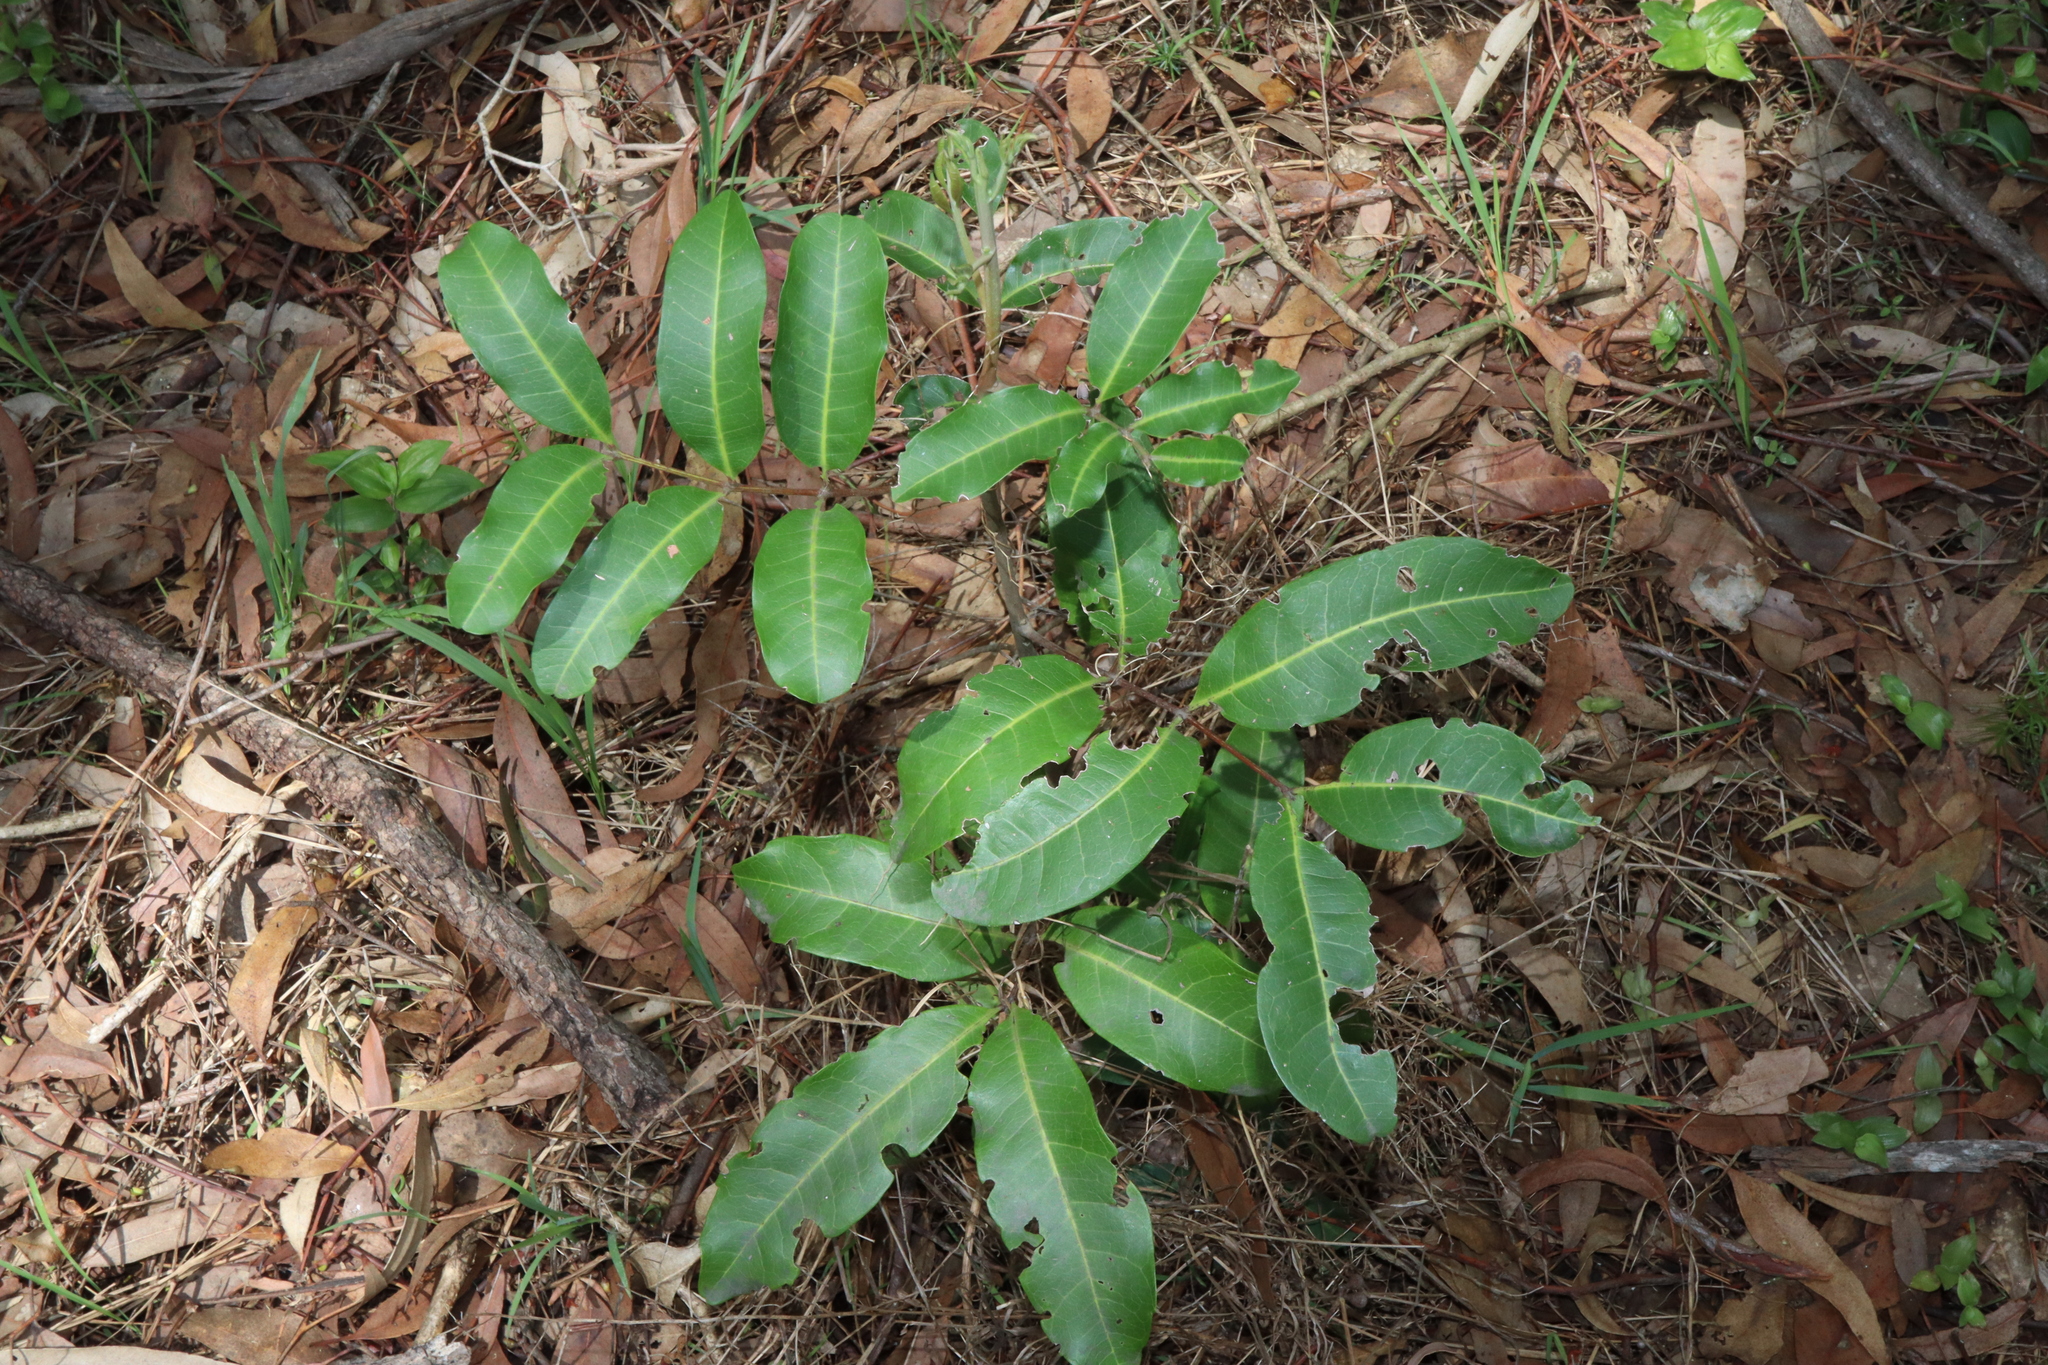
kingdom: Plantae
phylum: Tracheophyta
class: Magnoliopsida
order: Sapindales
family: Sapindaceae
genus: Cupaniopsis
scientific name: Cupaniopsis anacardioides
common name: Carrotwood
